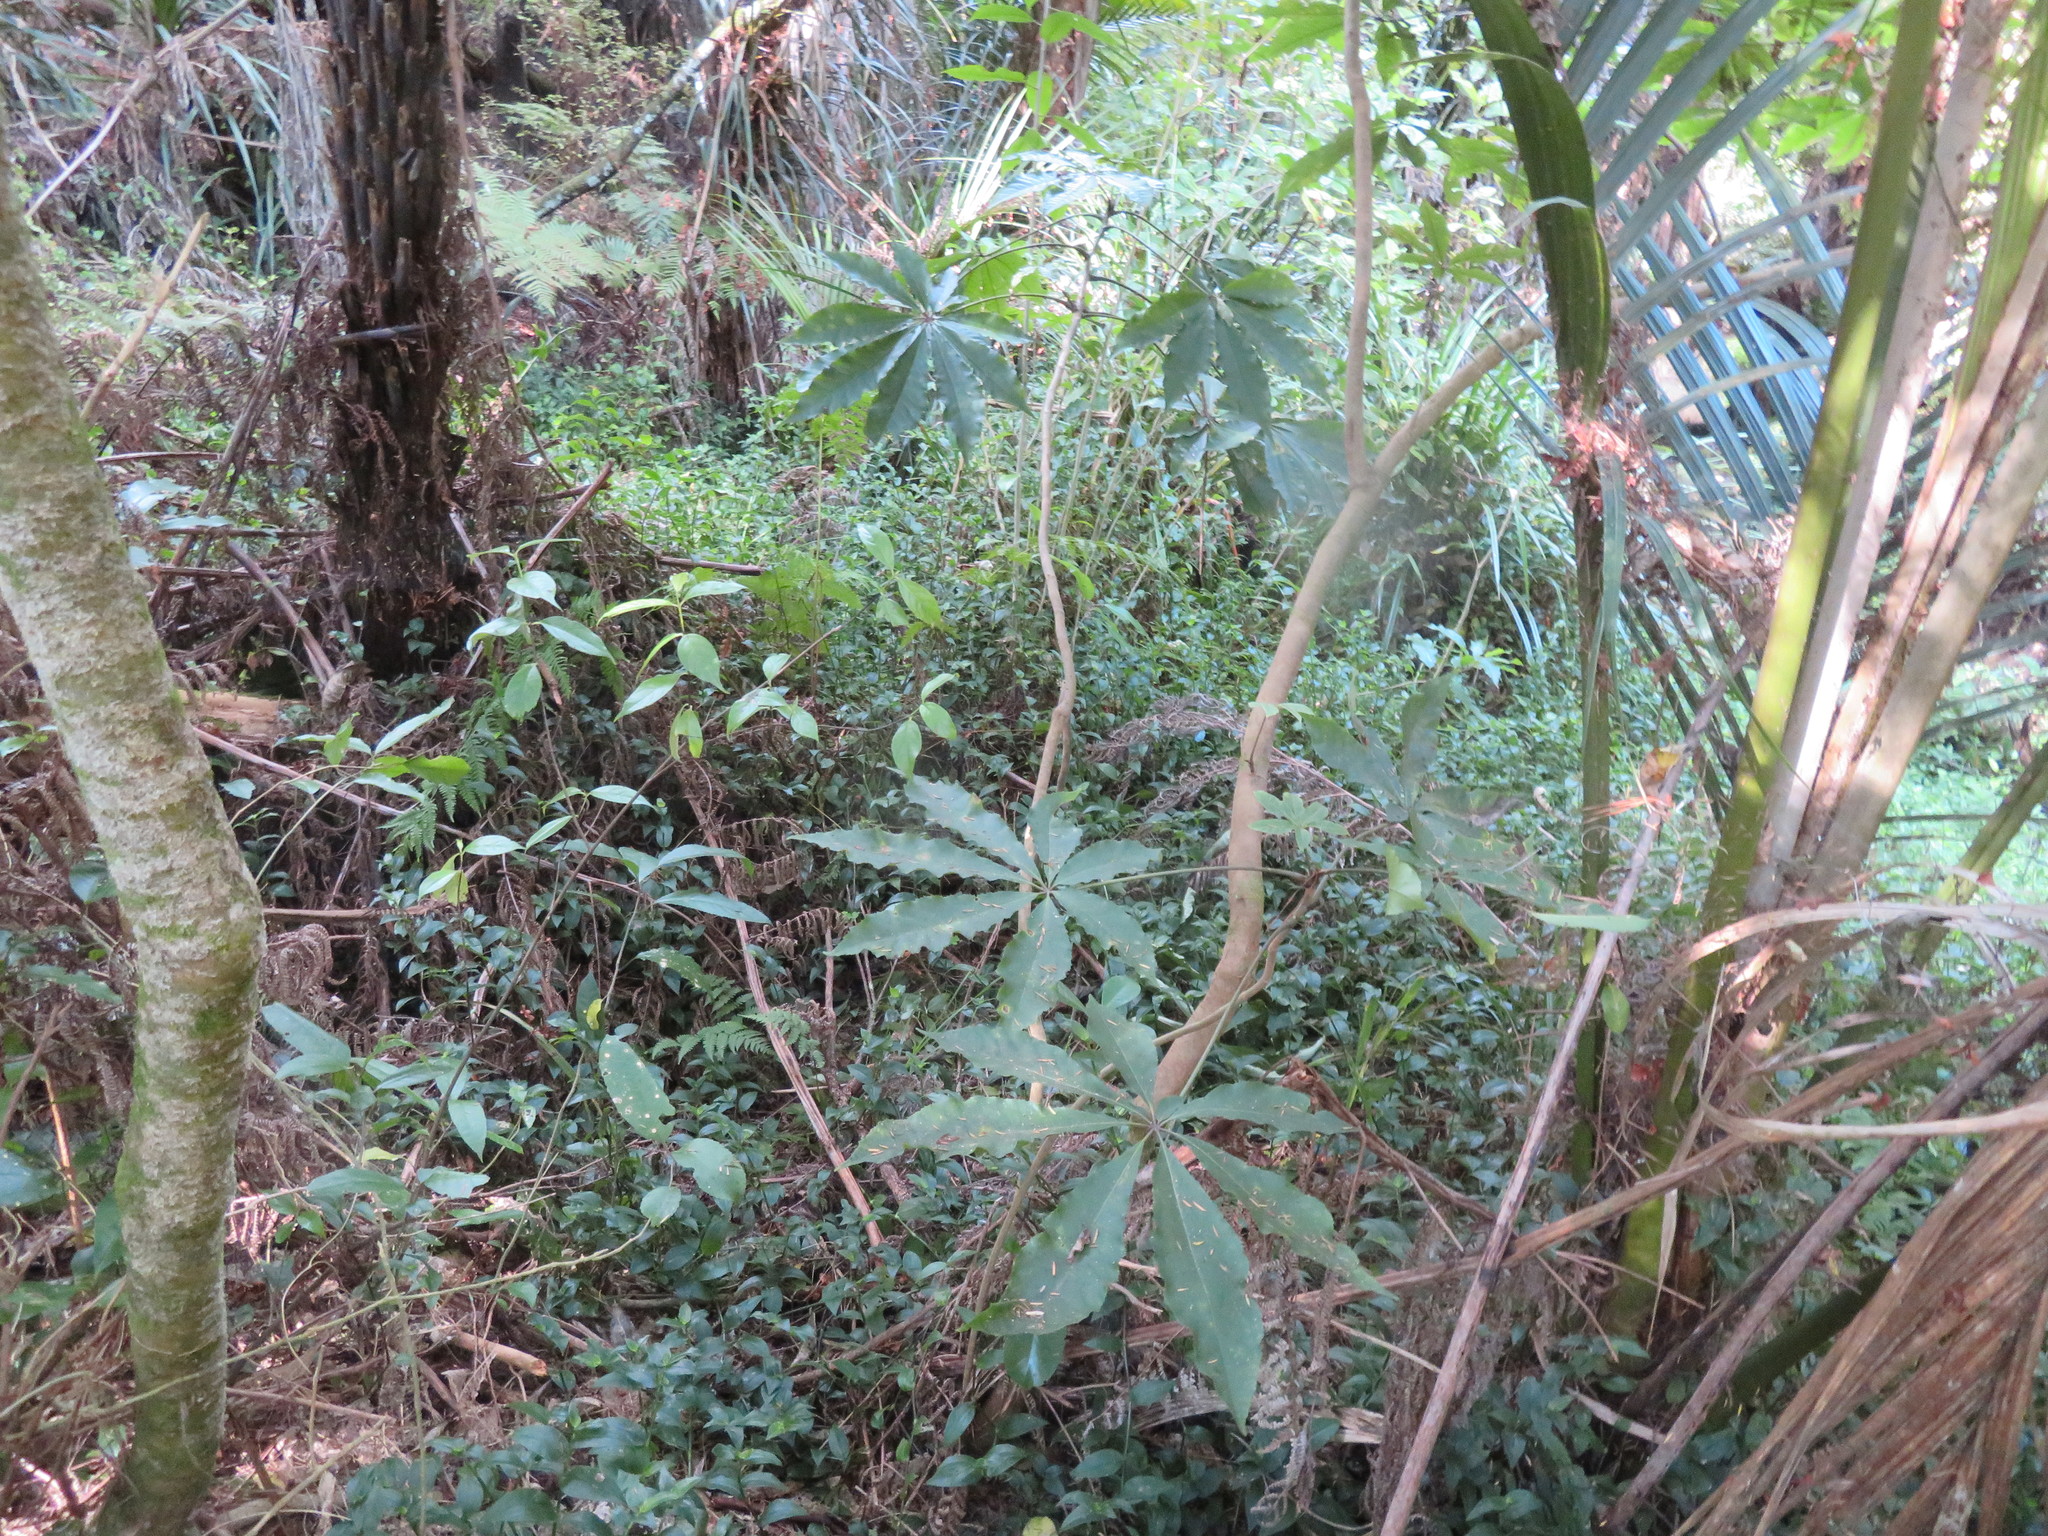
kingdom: Plantae
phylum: Tracheophyta
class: Liliopsida
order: Commelinales
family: Commelinaceae
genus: Tradescantia
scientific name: Tradescantia fluminensis
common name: Wandering-jew
